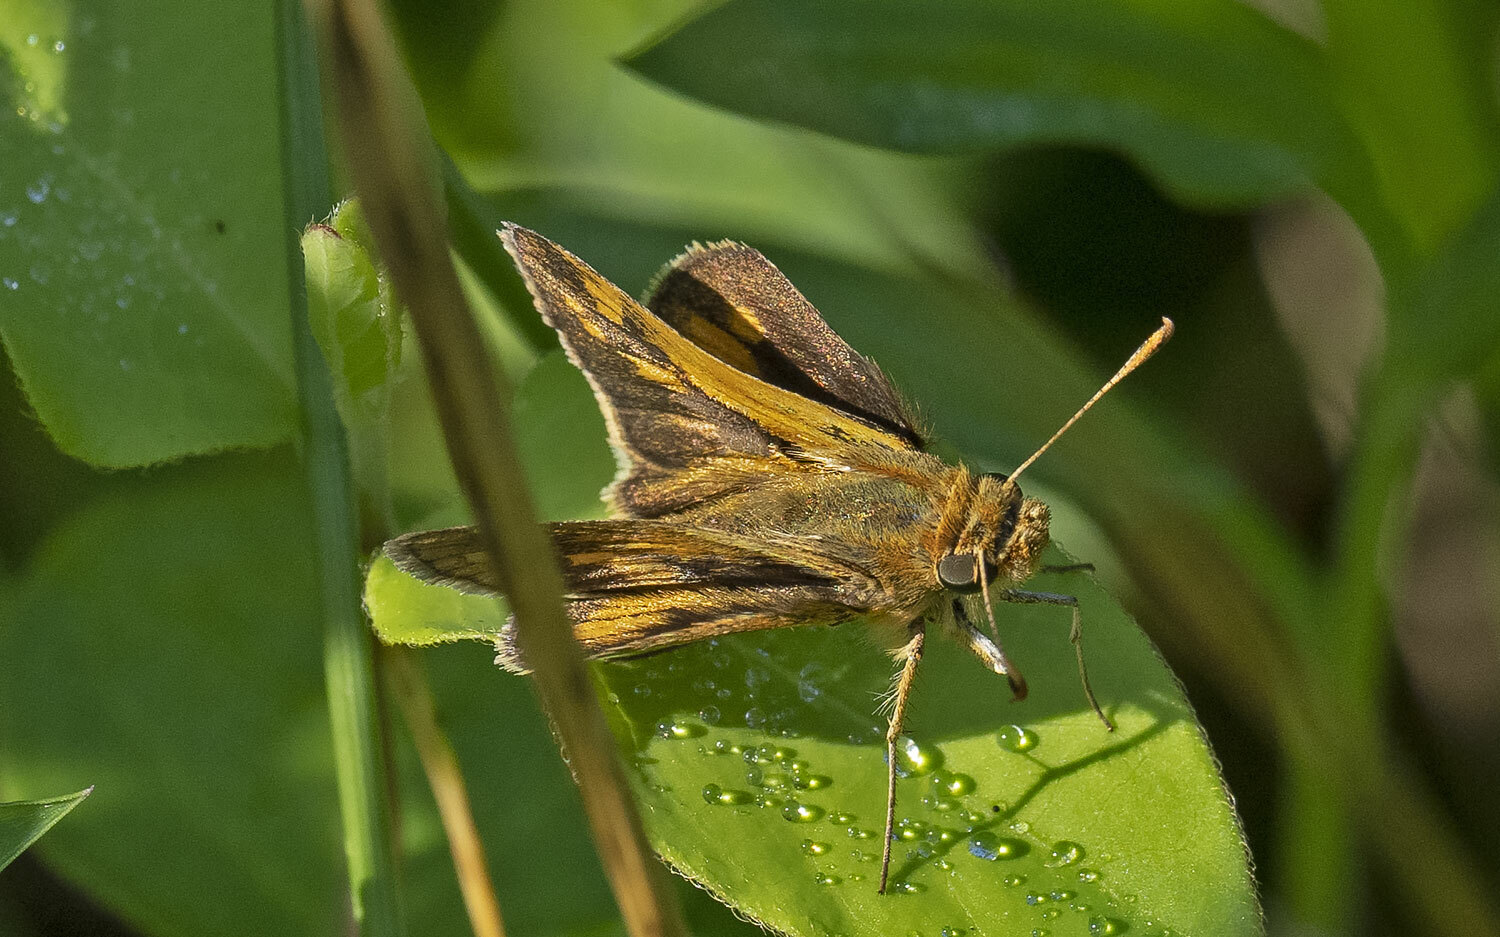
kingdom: Animalia
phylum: Arthropoda
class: Insecta
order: Lepidoptera
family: Hesperiidae
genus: Polites
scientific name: Polites coras
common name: Peck's skipper
